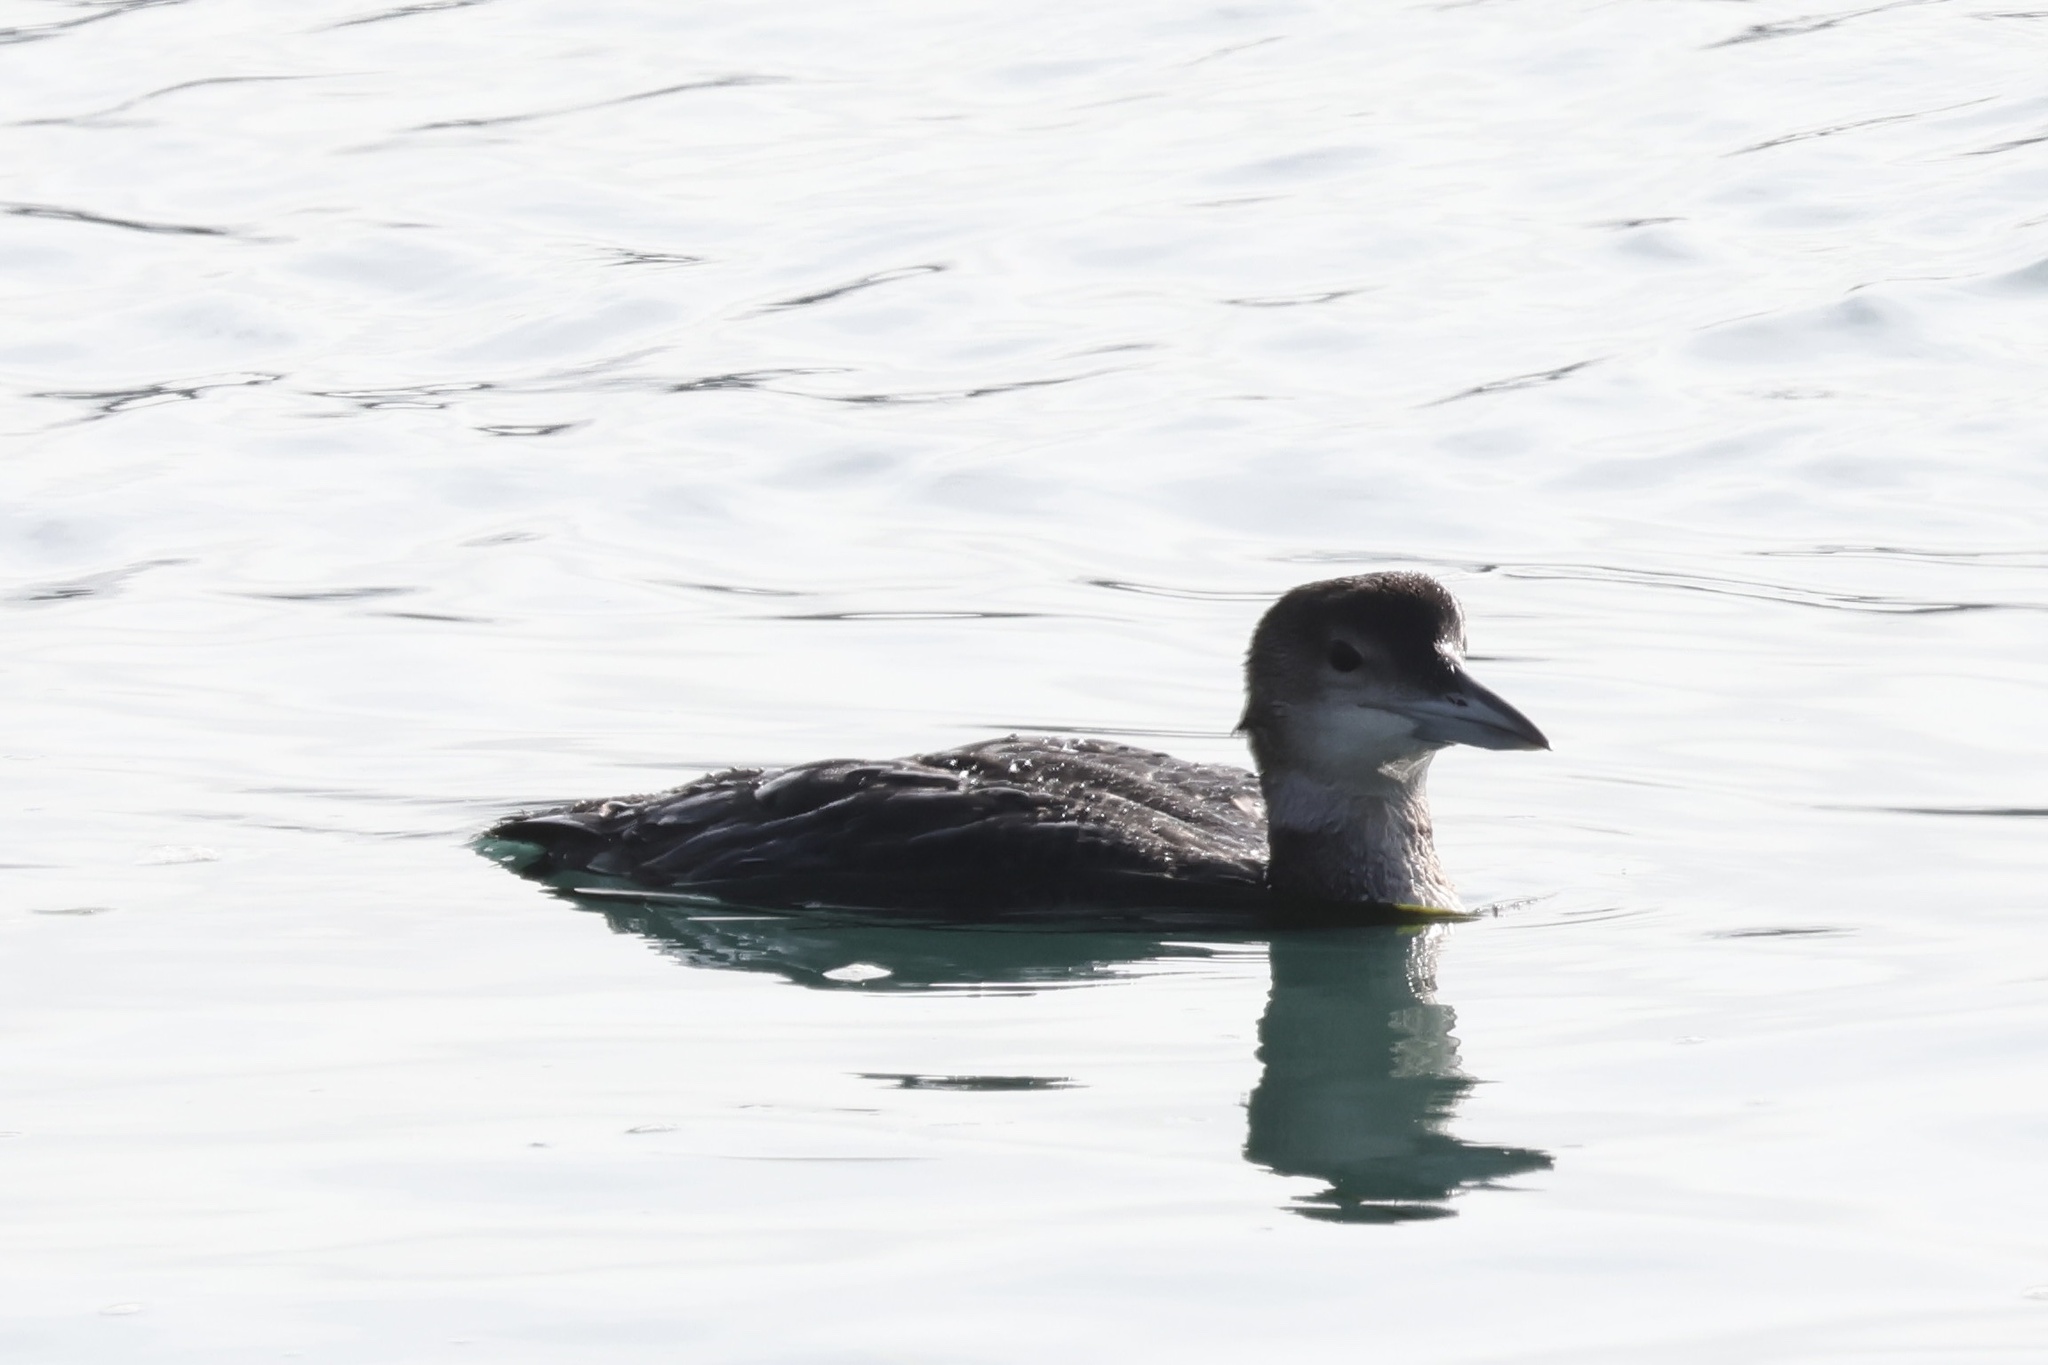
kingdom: Animalia
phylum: Chordata
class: Aves
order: Gaviiformes
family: Gaviidae
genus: Gavia
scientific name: Gavia immer
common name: Common loon
